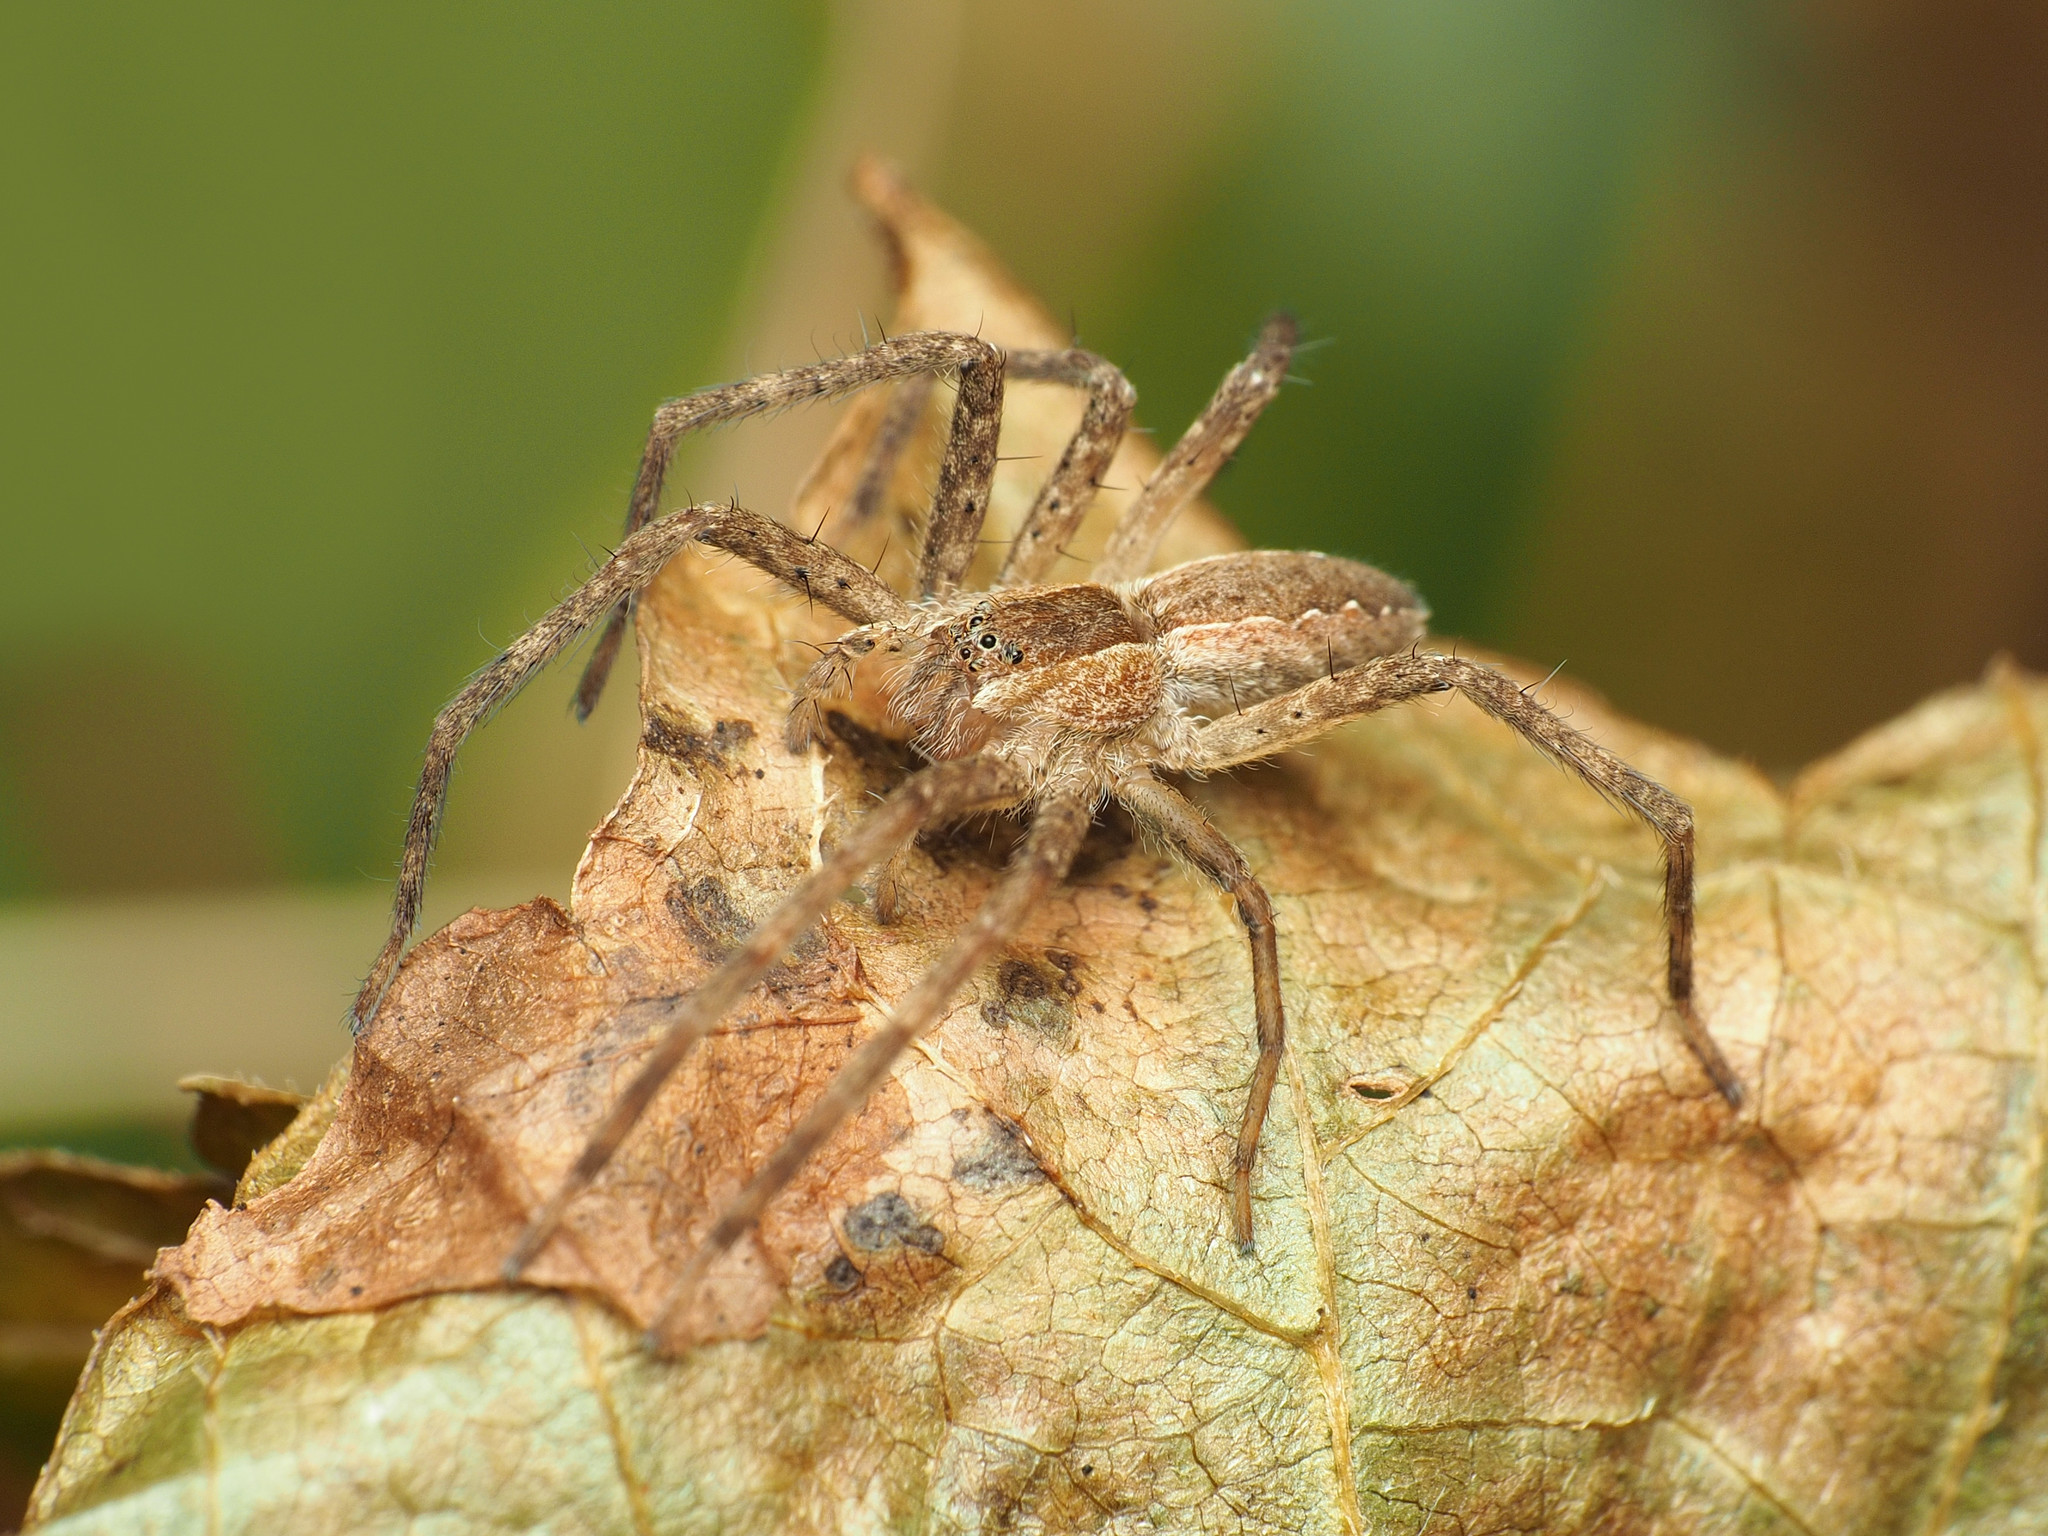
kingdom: Animalia
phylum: Arthropoda
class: Arachnida
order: Araneae
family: Pisauridae
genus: Pisaurina
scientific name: Pisaurina mira
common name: American nursery web spider
